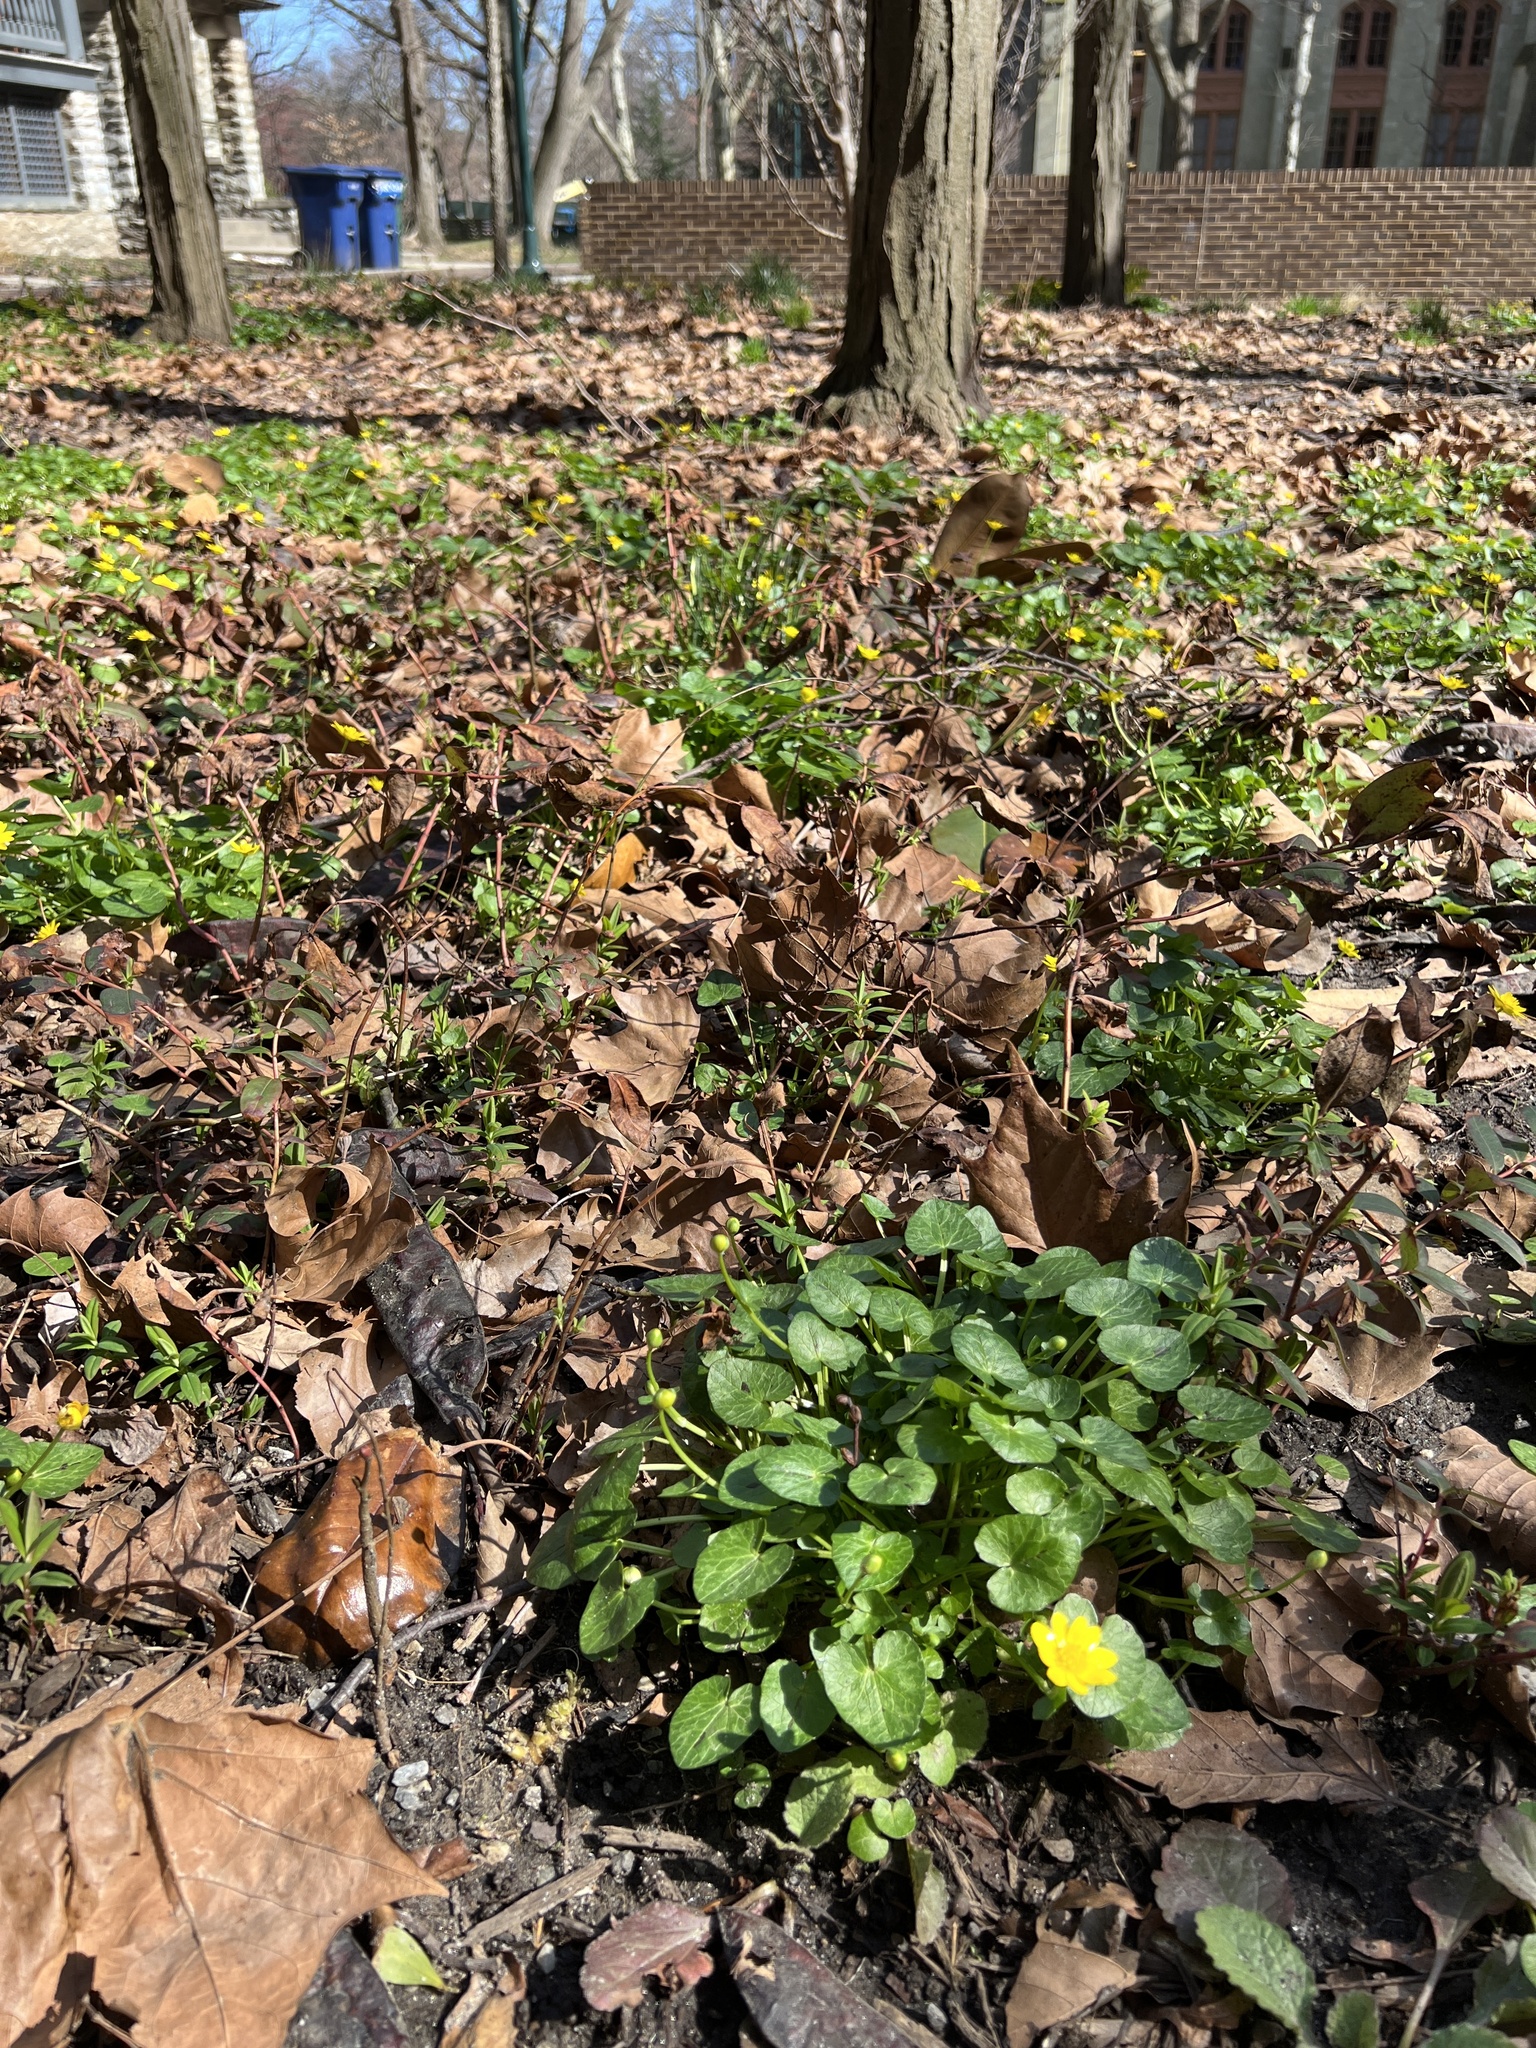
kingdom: Plantae
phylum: Tracheophyta
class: Magnoliopsida
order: Ranunculales
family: Ranunculaceae
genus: Ficaria
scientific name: Ficaria verna
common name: Lesser celandine
